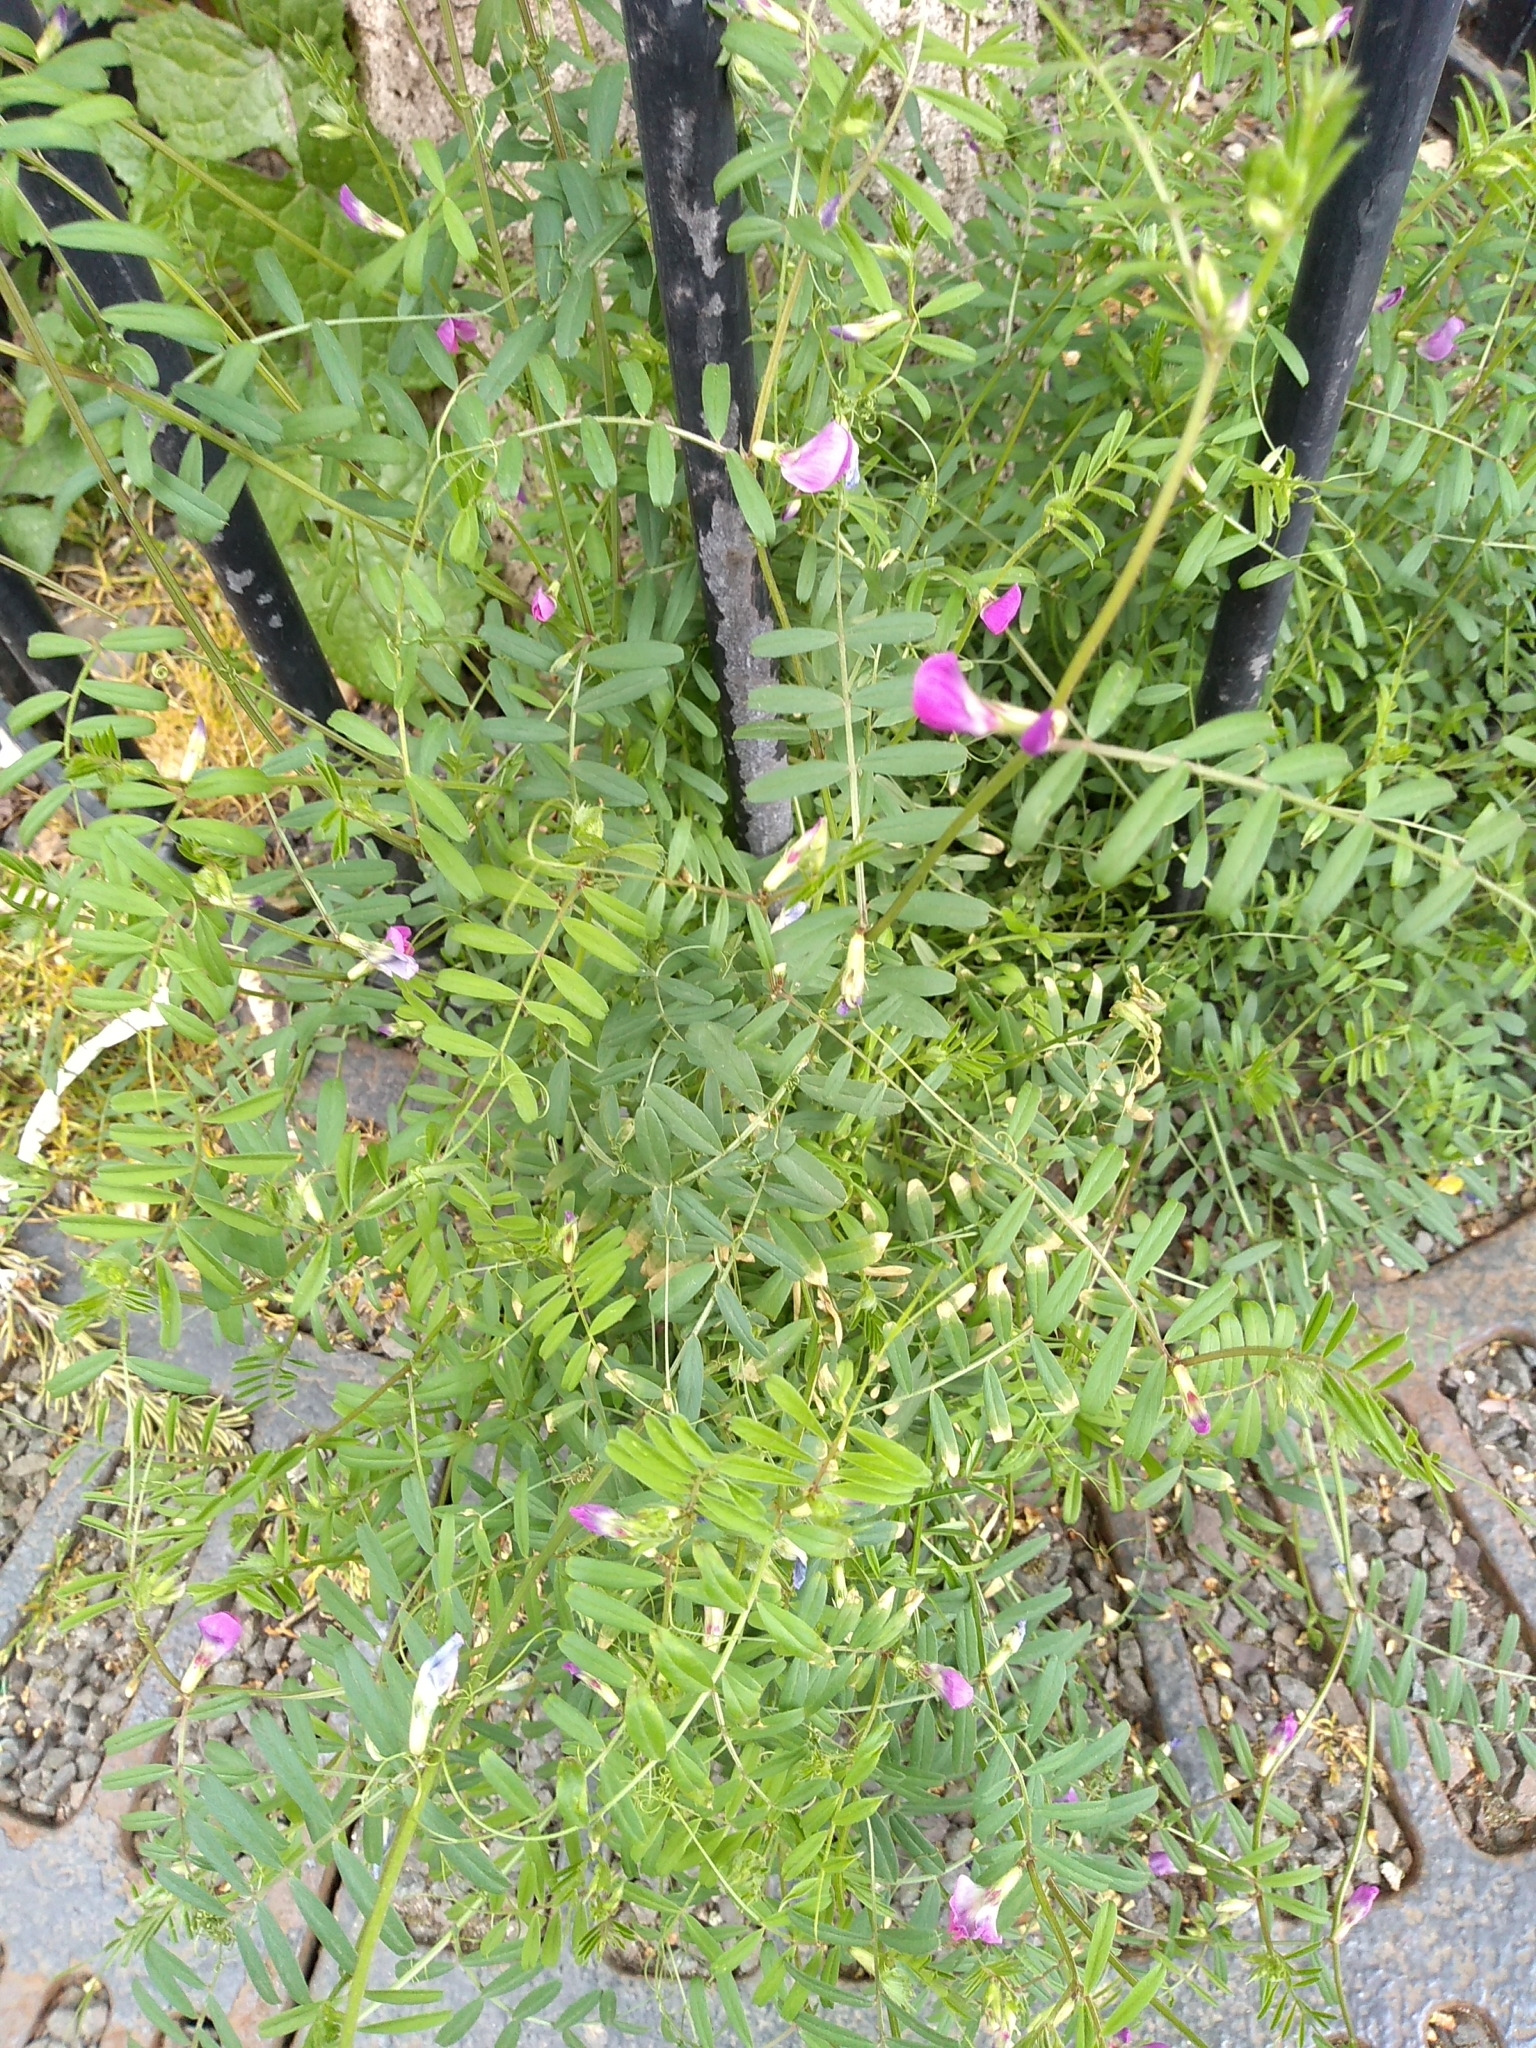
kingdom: Plantae
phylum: Tracheophyta
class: Magnoliopsida
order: Fabales
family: Fabaceae
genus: Vicia
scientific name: Vicia sativa
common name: Garden vetch
